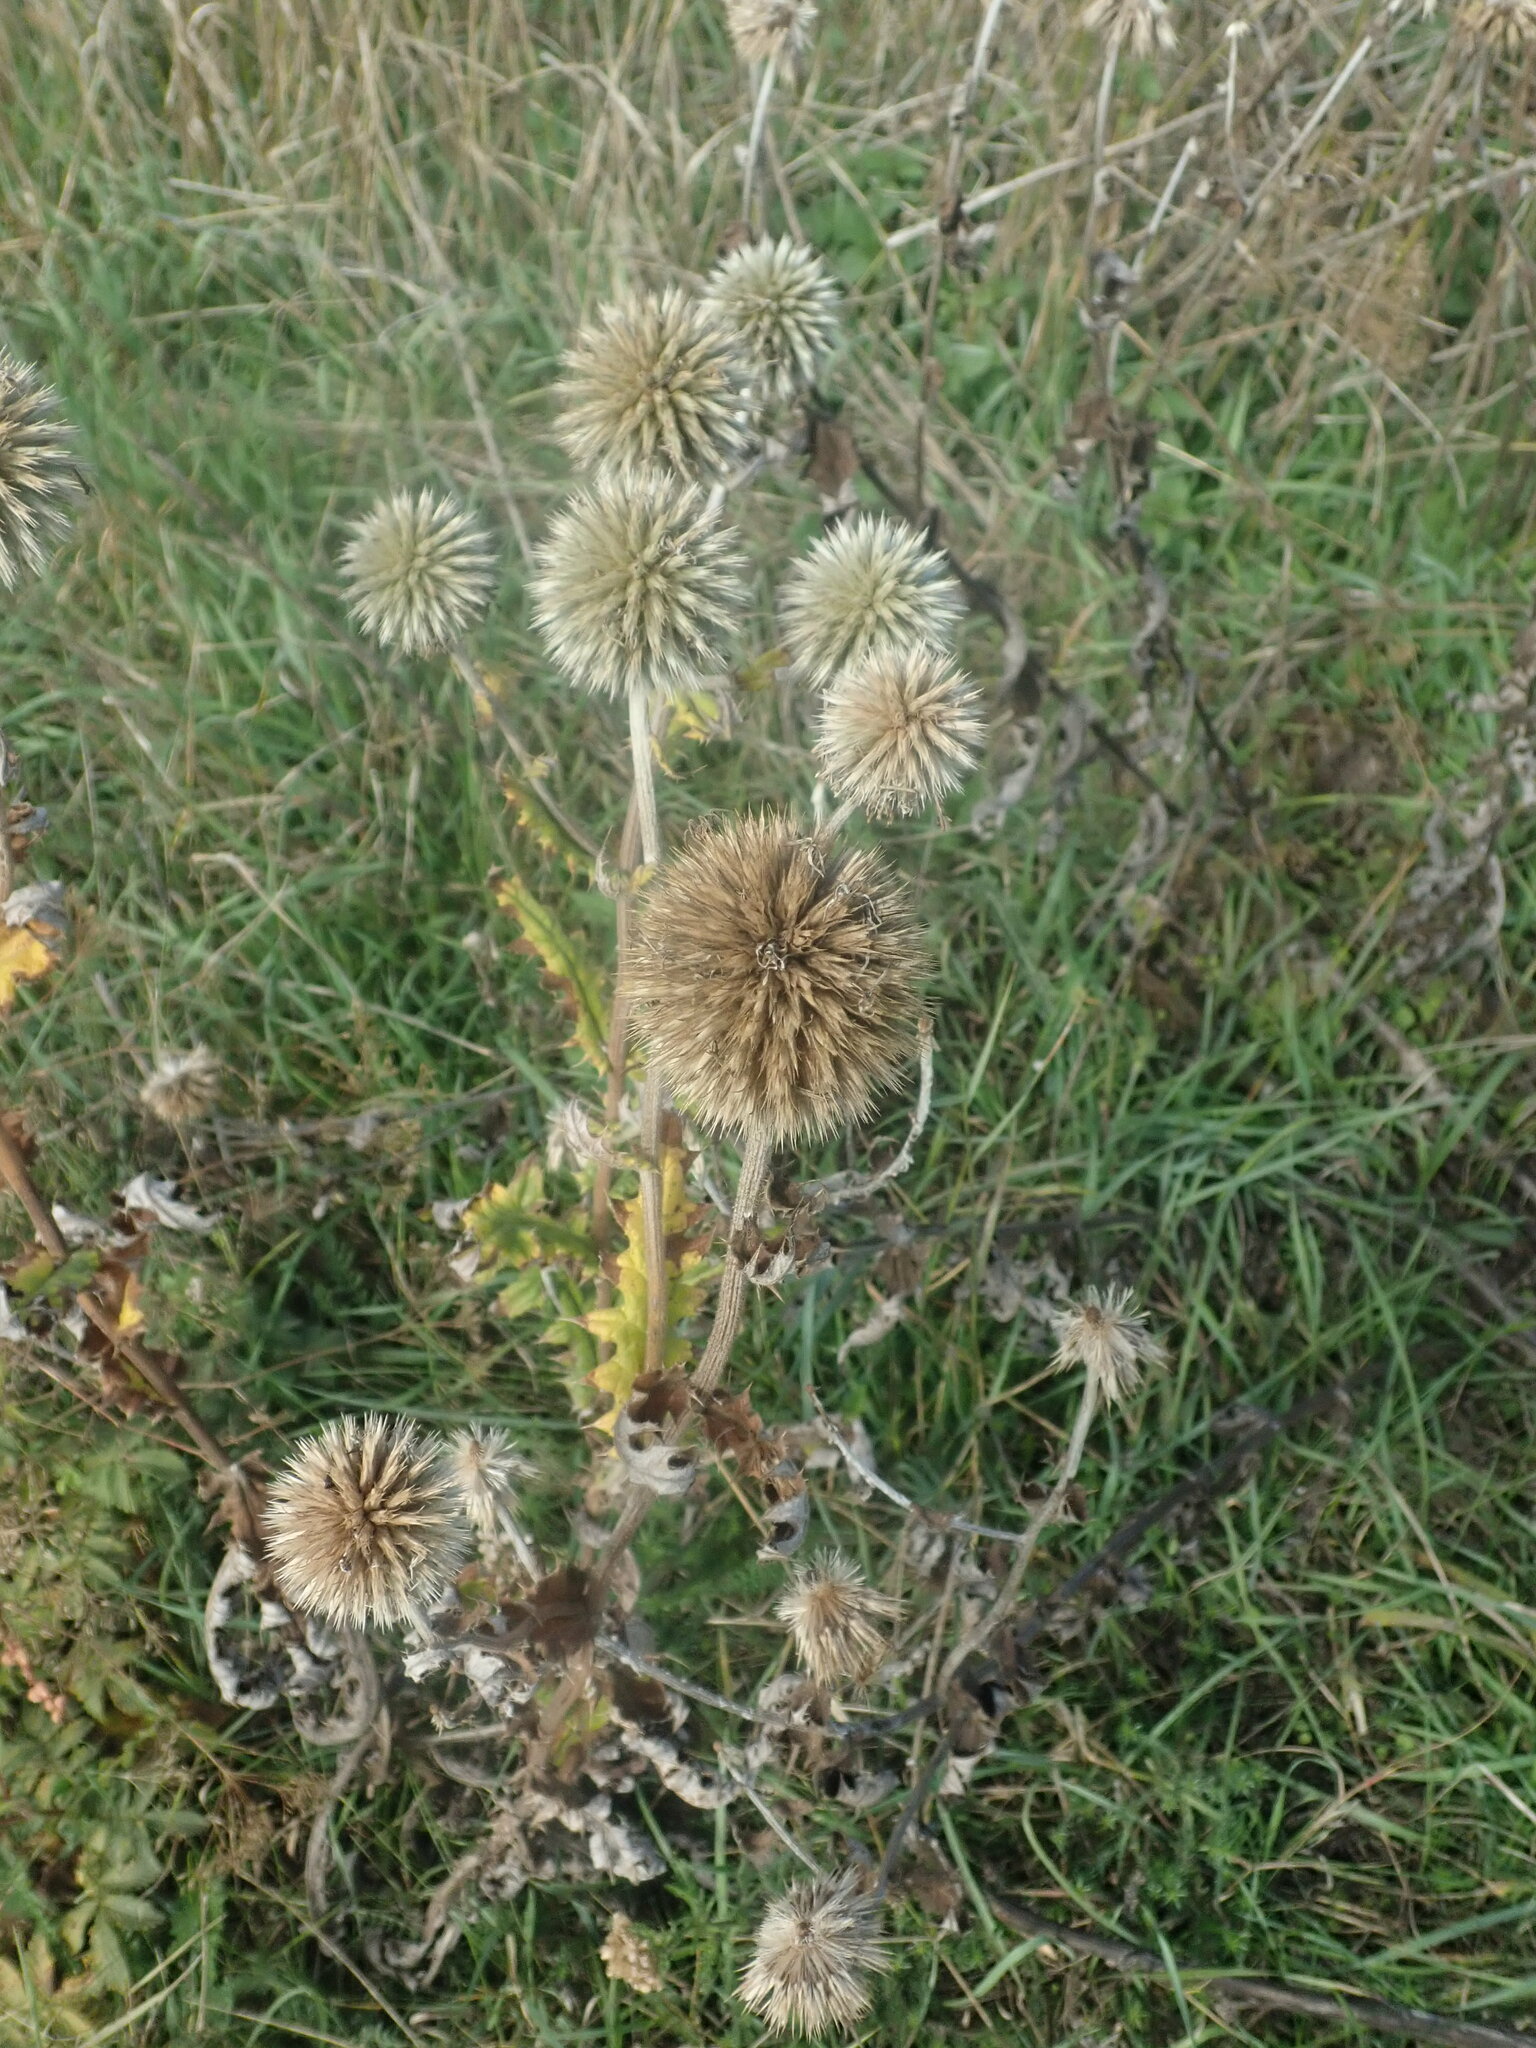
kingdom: Plantae
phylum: Tracheophyta
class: Magnoliopsida
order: Asterales
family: Asteraceae
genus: Echinops
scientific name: Echinops sphaerocephalus
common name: Glandular globe-thistle
